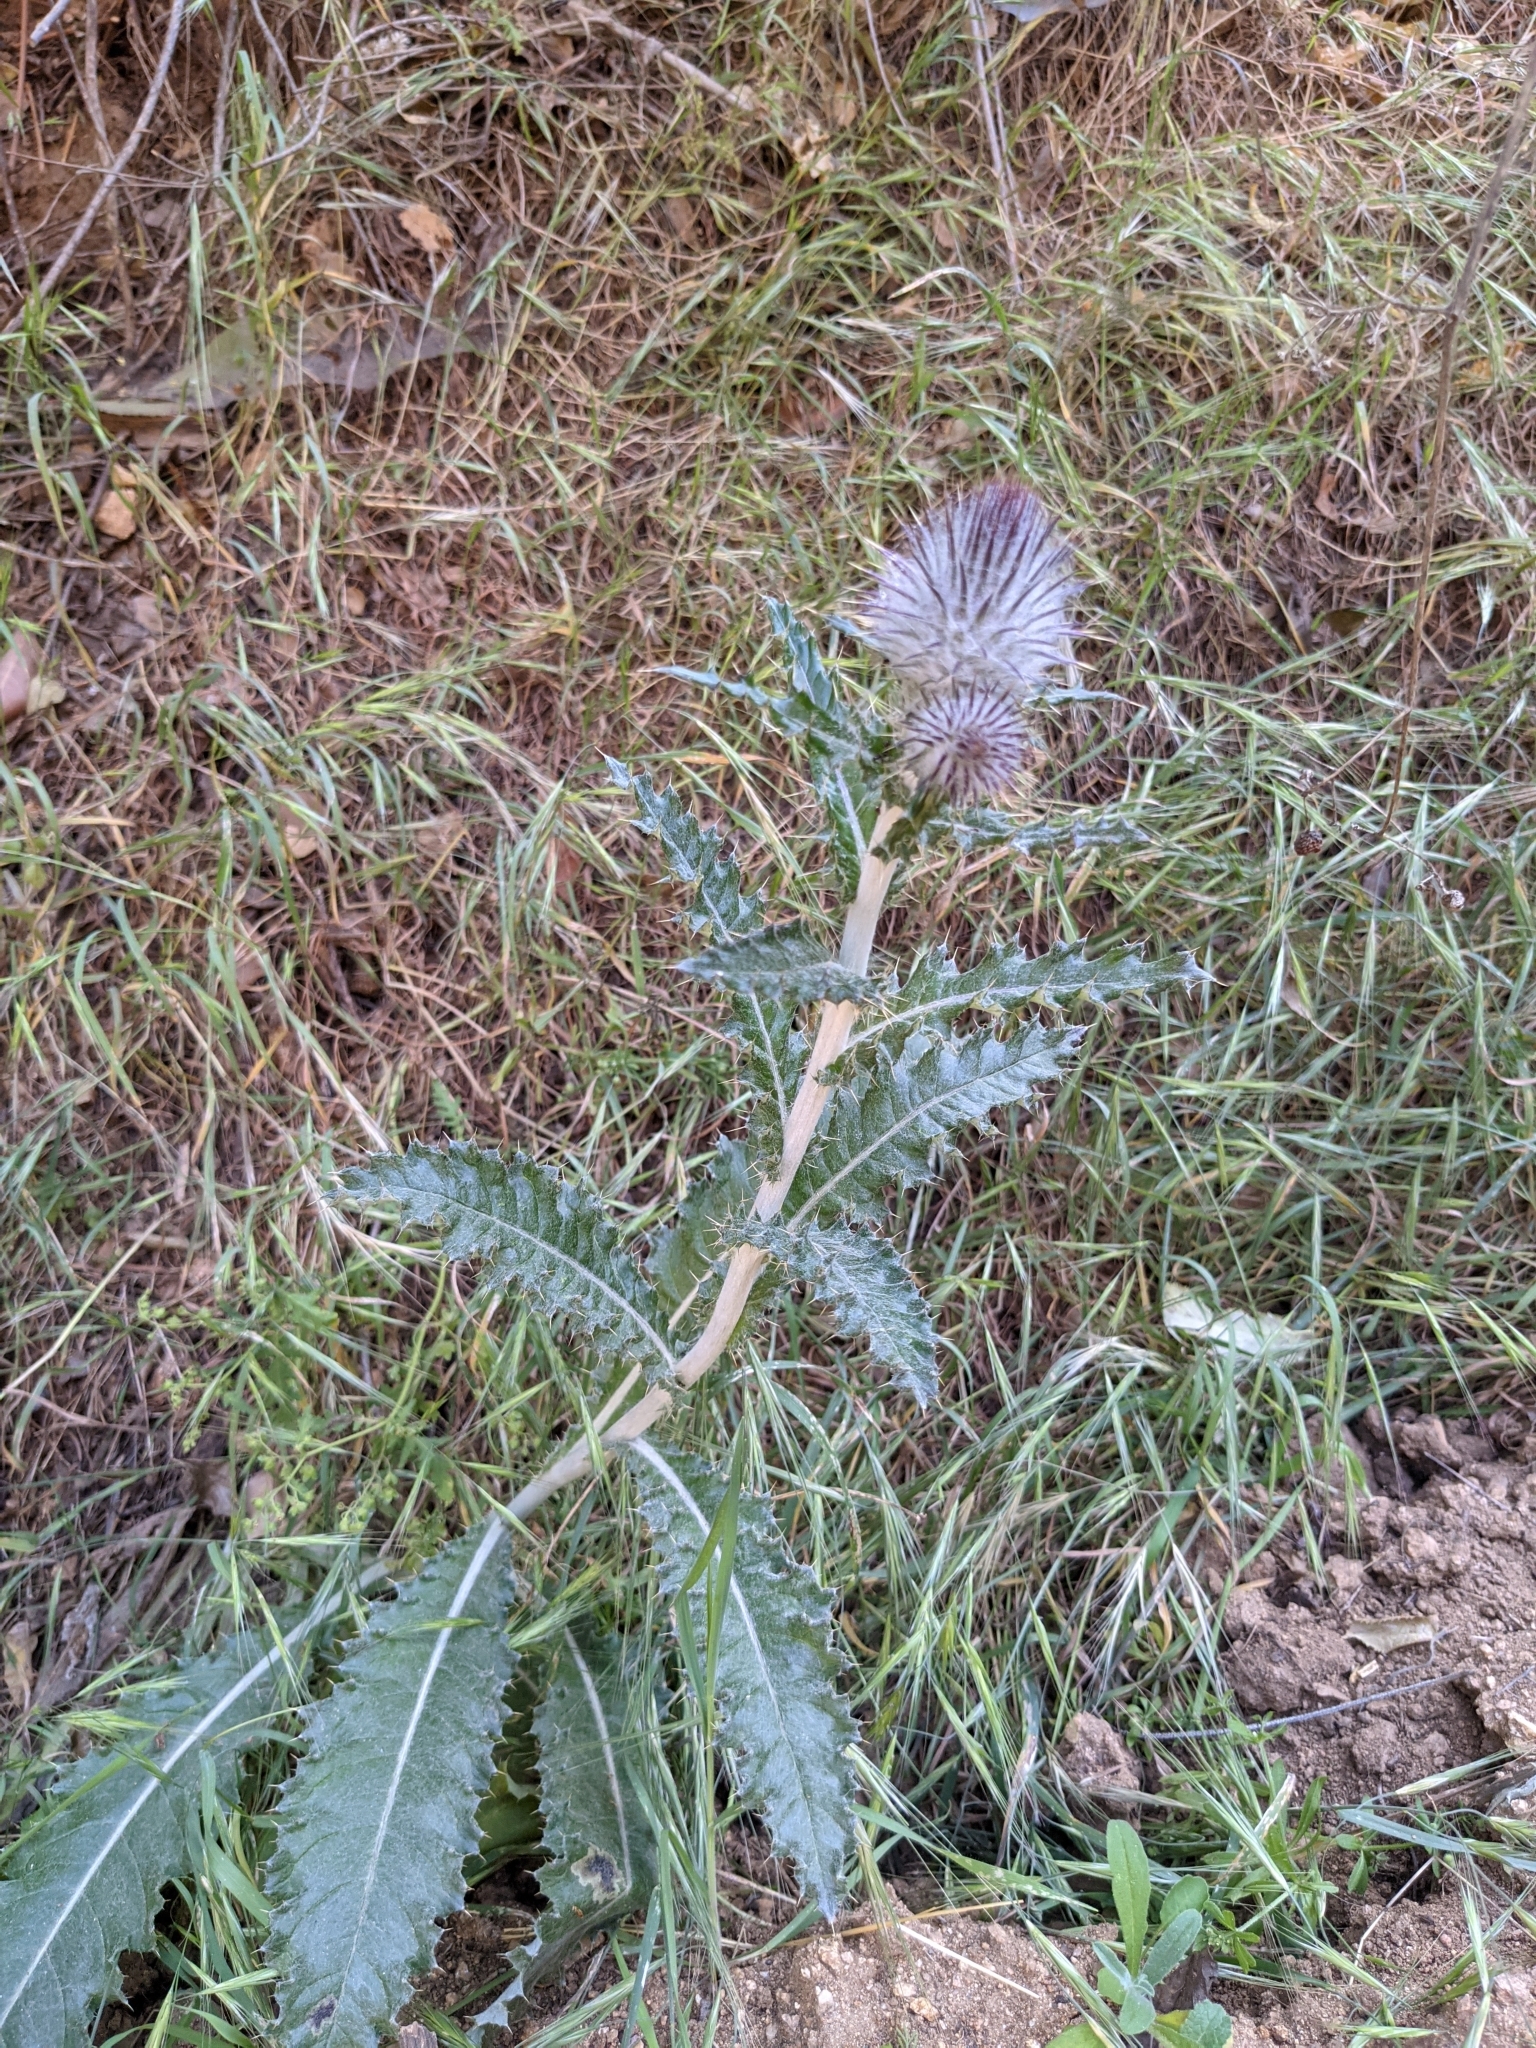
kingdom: Plantae
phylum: Tracheophyta
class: Magnoliopsida
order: Asterales
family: Asteraceae
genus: Cirsium
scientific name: Cirsium occidentale
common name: Western thistle
